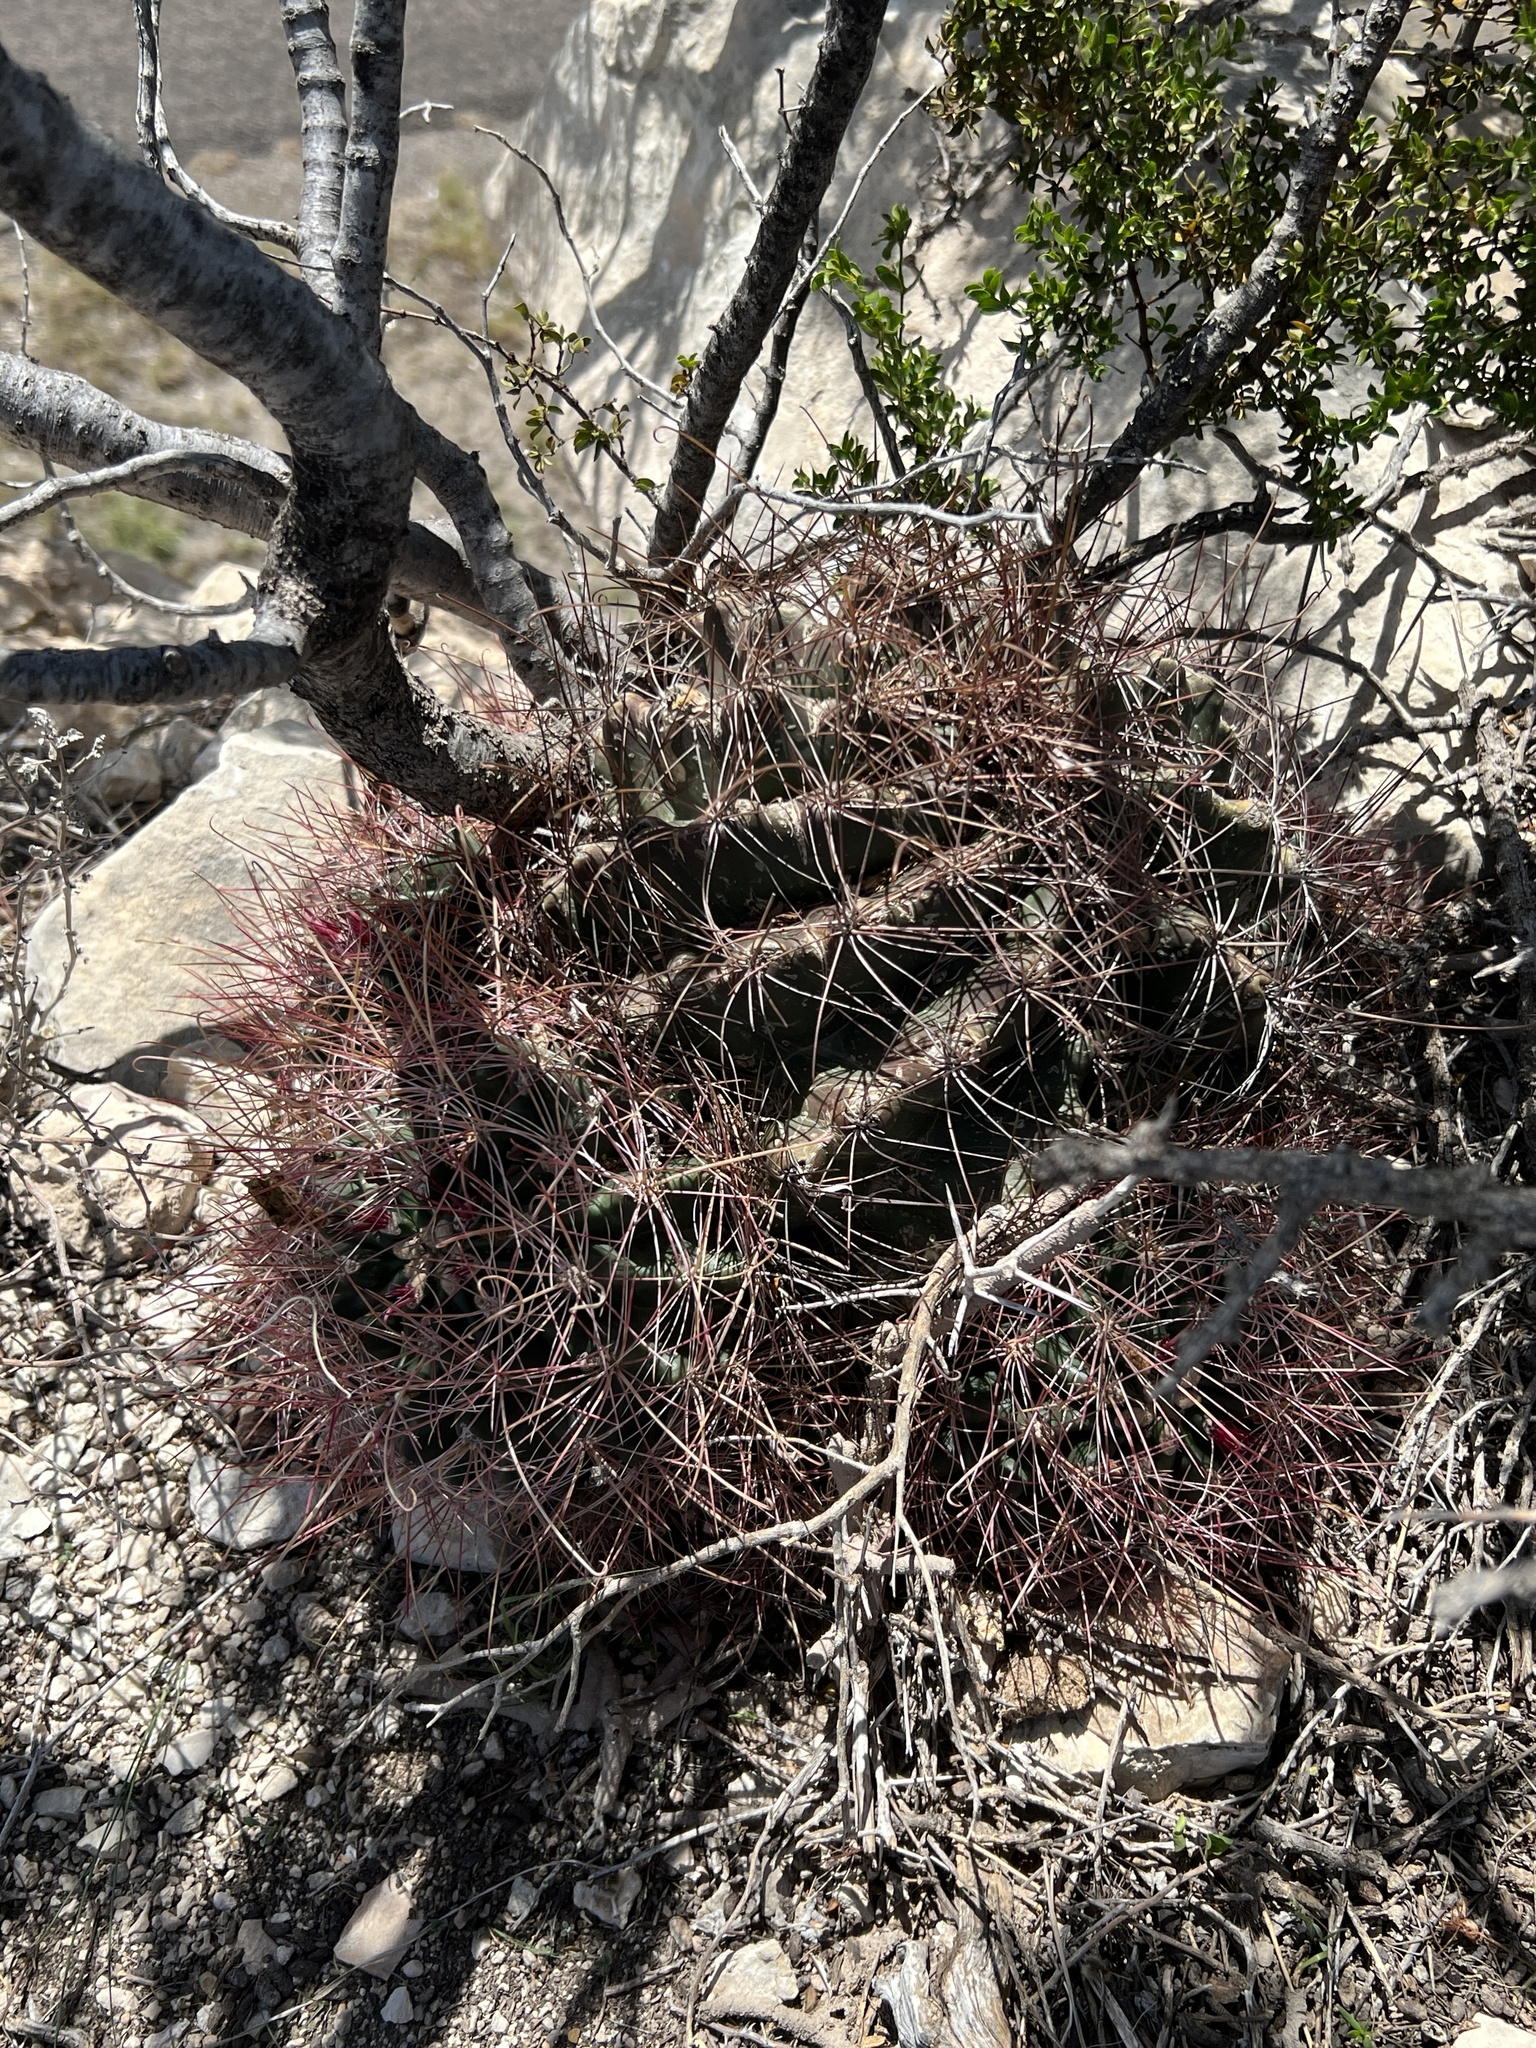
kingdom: Plantae
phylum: Tracheophyta
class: Magnoliopsida
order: Caryophyllales
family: Cactaceae
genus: Bisnaga
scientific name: Bisnaga hamatacantha
